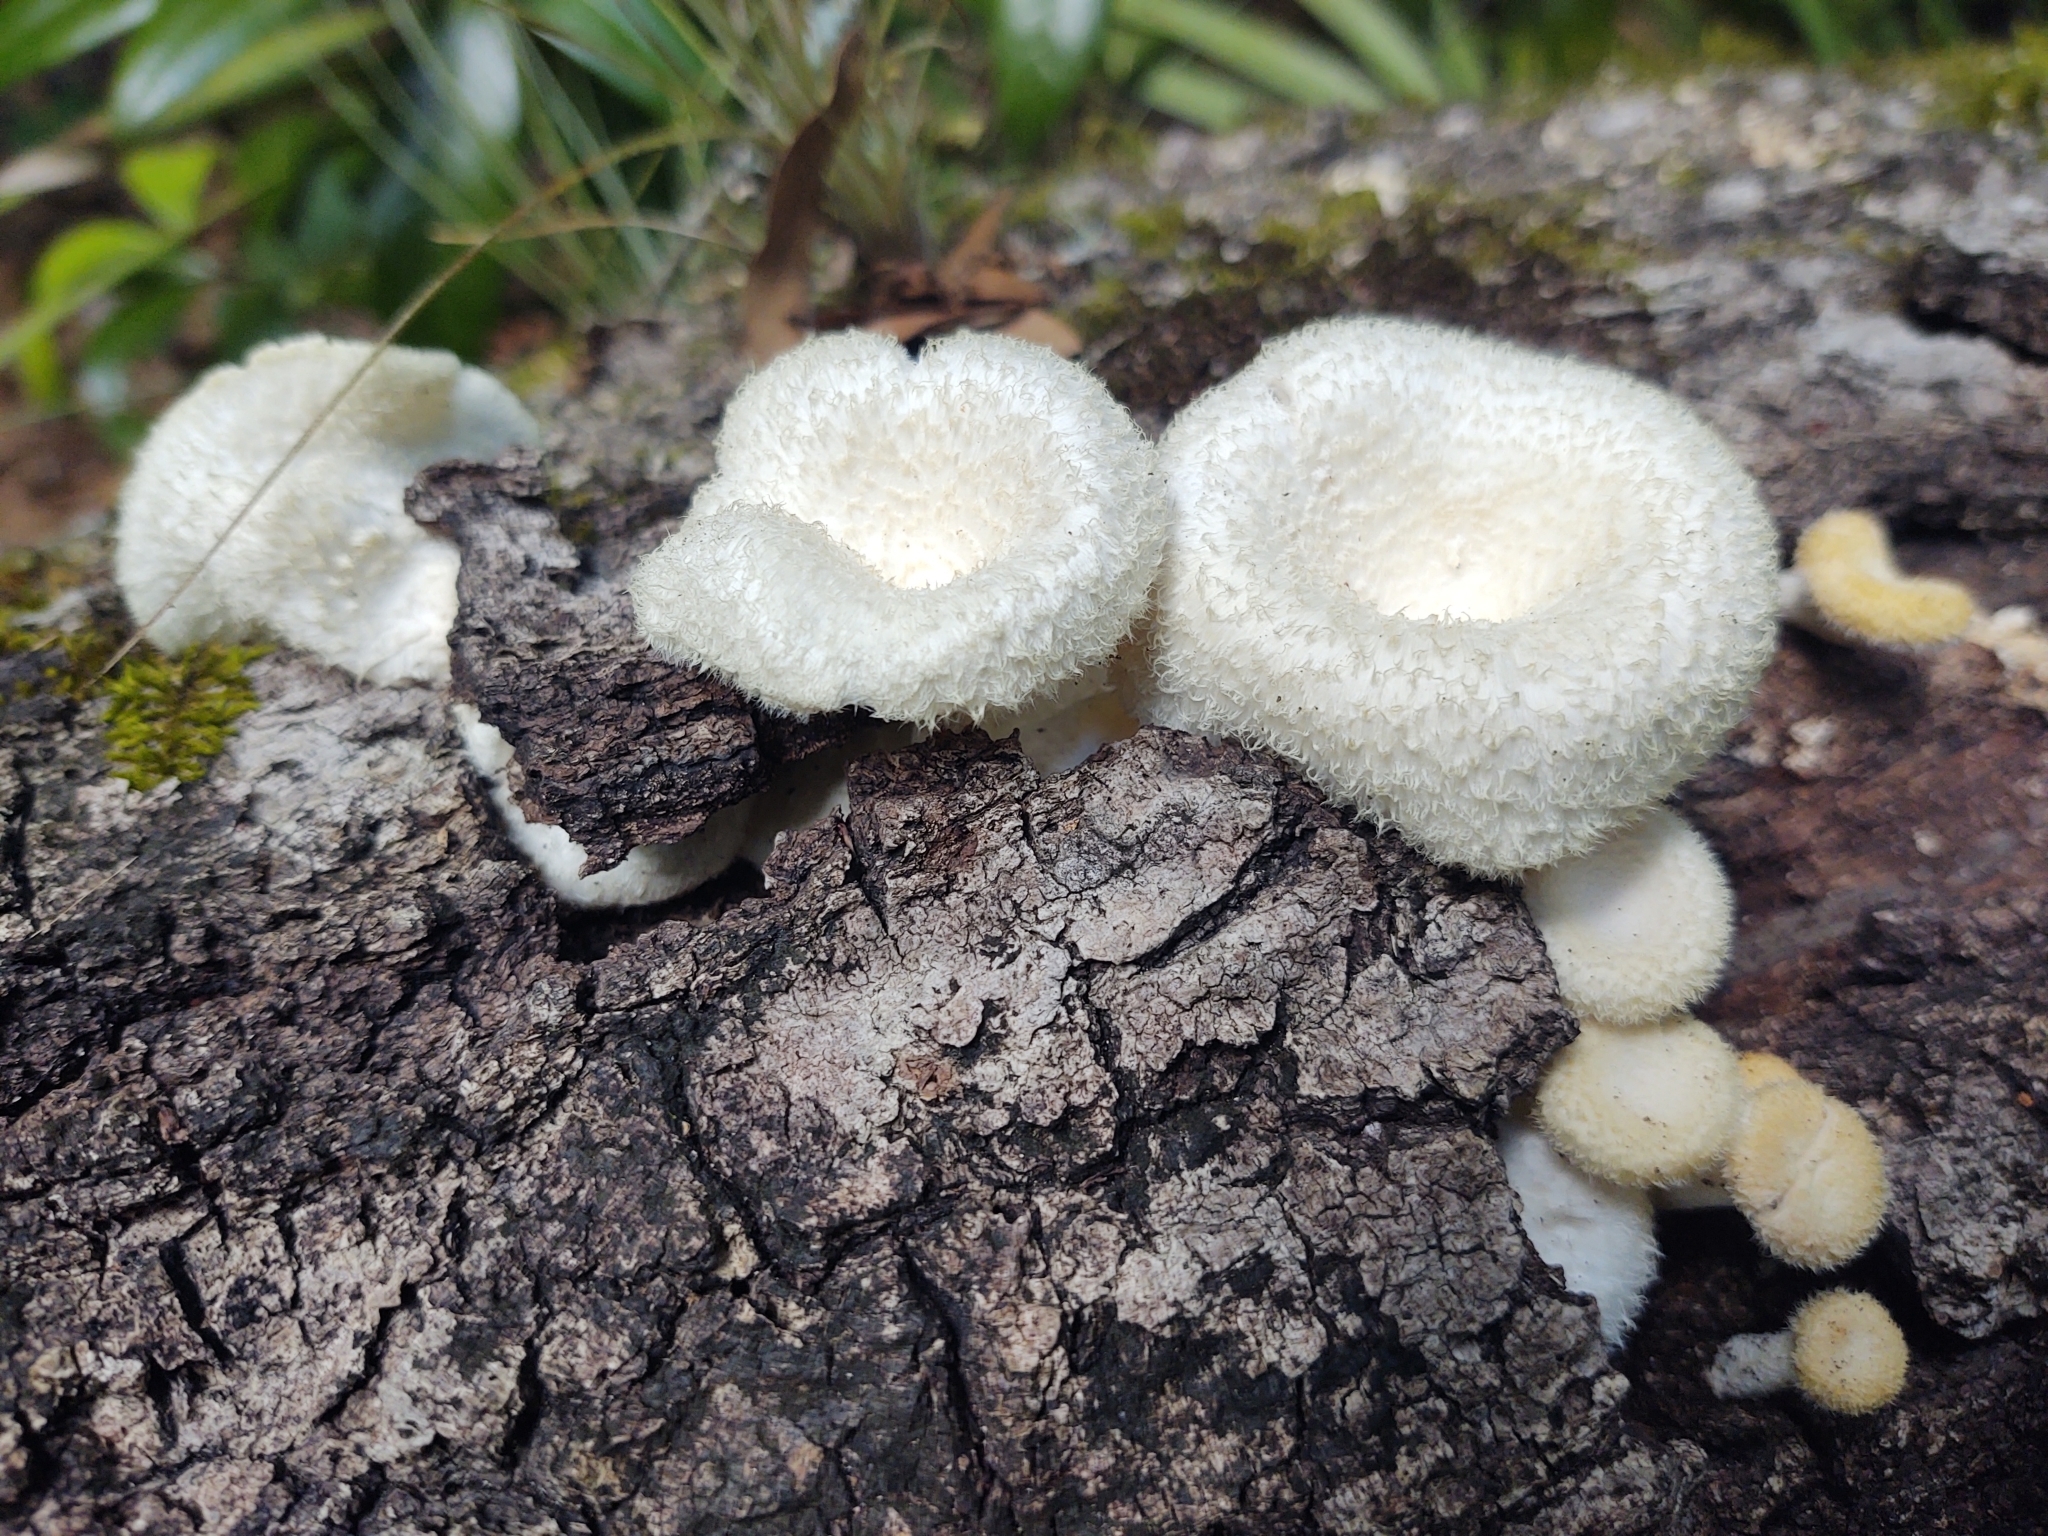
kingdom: Fungi
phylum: Basidiomycota
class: Agaricomycetes
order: Polyporales
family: Polyporaceae
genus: Lentinus
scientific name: Lentinus crinitus
